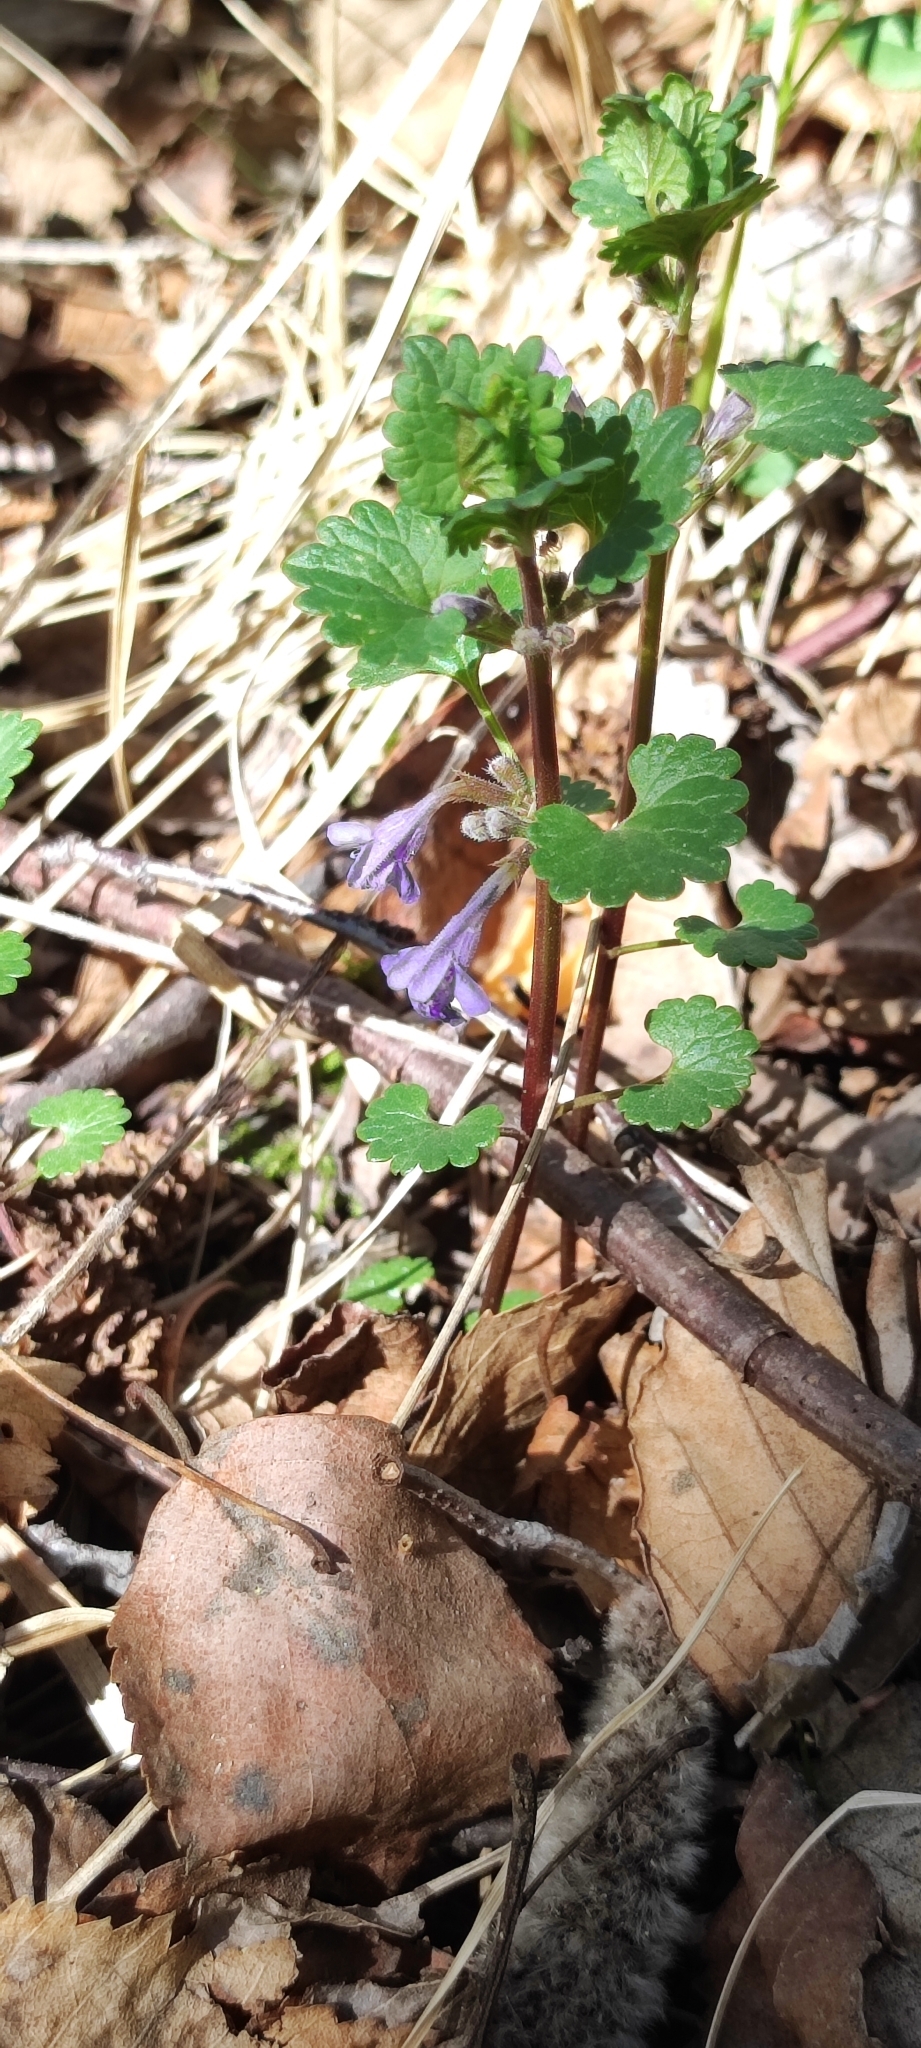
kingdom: Plantae
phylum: Tracheophyta
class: Magnoliopsida
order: Lamiales
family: Lamiaceae
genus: Glechoma
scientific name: Glechoma hederacea
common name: Ground ivy
